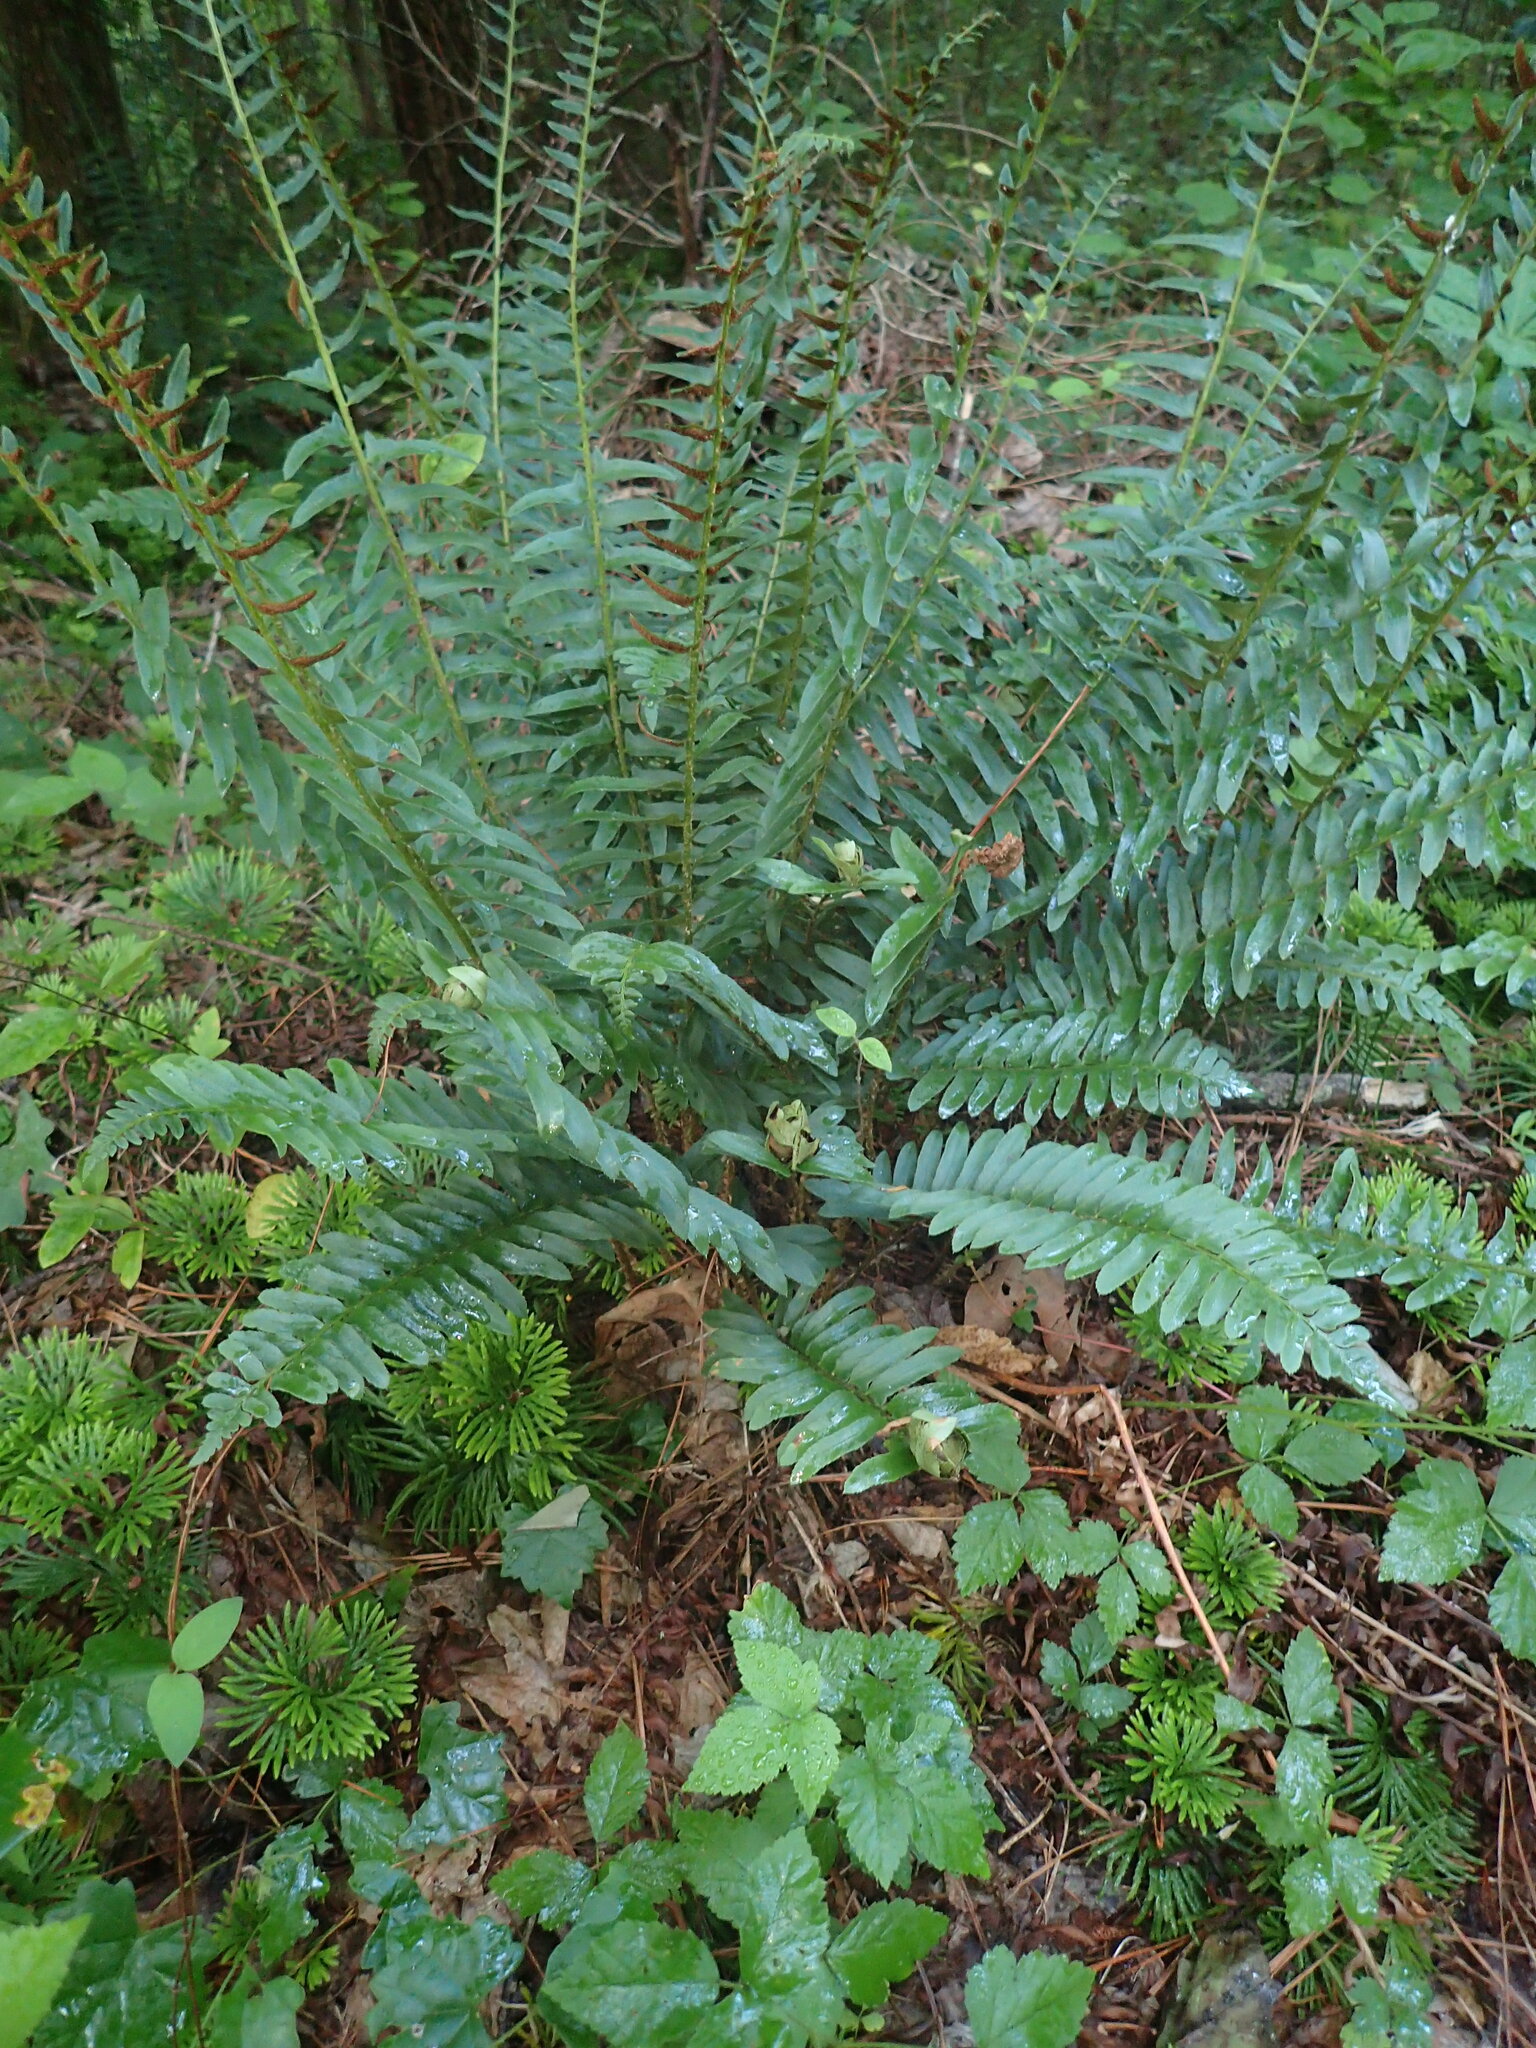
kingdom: Plantae
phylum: Tracheophyta
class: Polypodiopsida
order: Polypodiales
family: Dryopteridaceae
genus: Polystichum
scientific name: Polystichum acrostichoides
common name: Christmas fern
